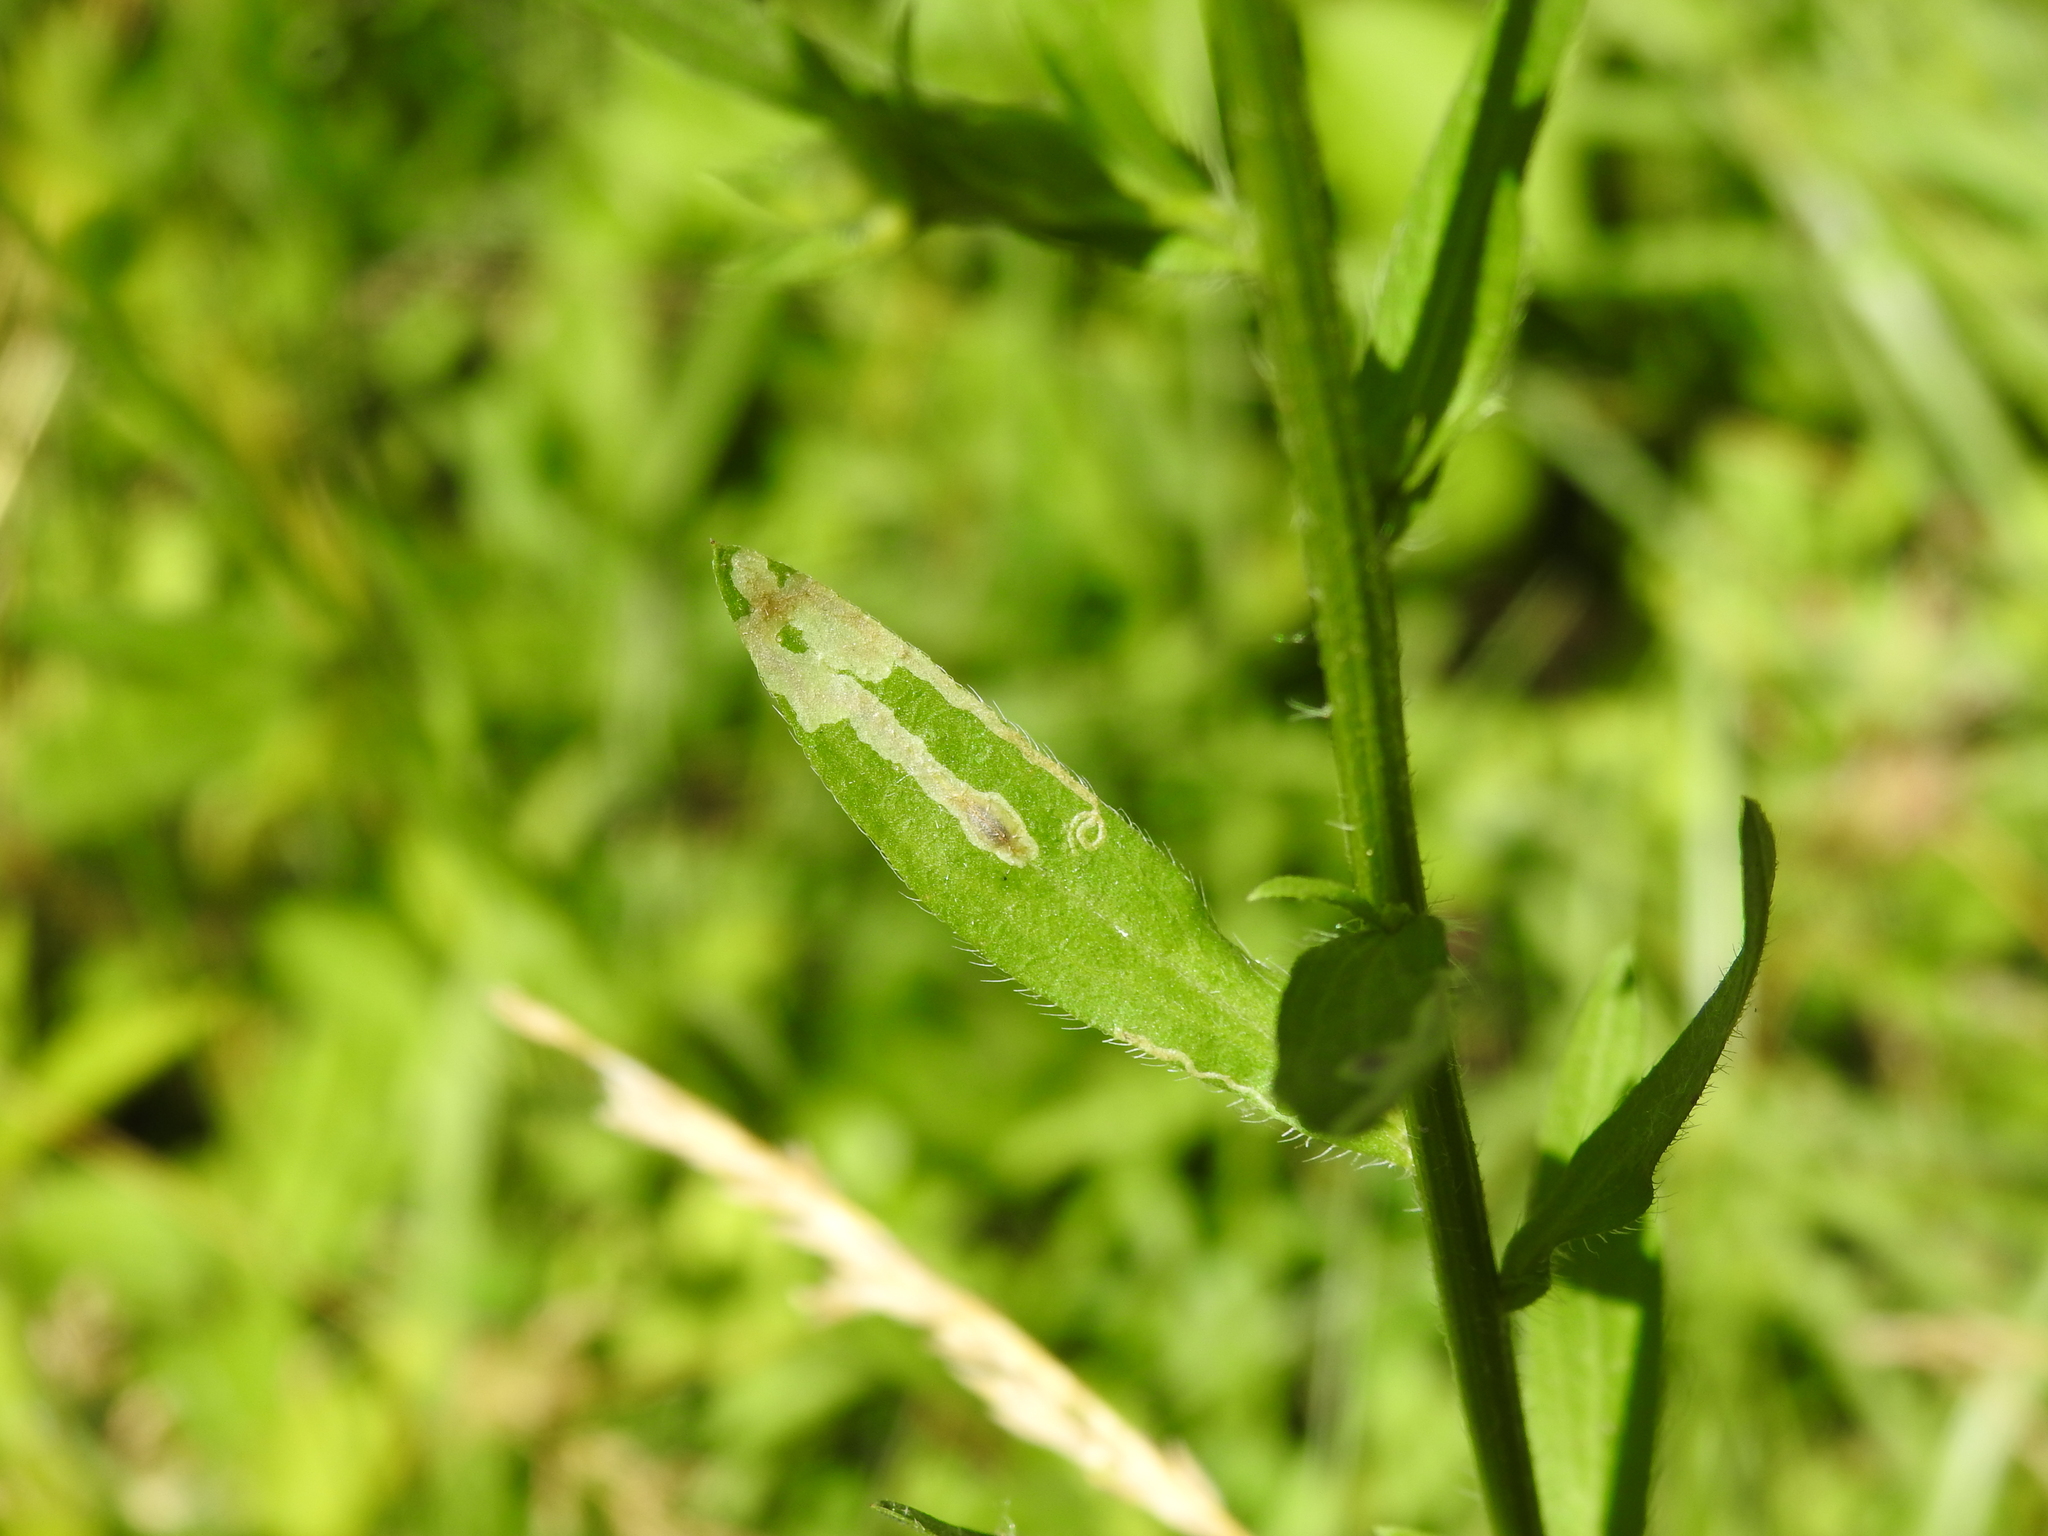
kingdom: Animalia
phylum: Arthropoda
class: Insecta
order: Diptera
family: Agromyzidae
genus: Calycomyza
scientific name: Calycomyza humeralis
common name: Aster leafminer
